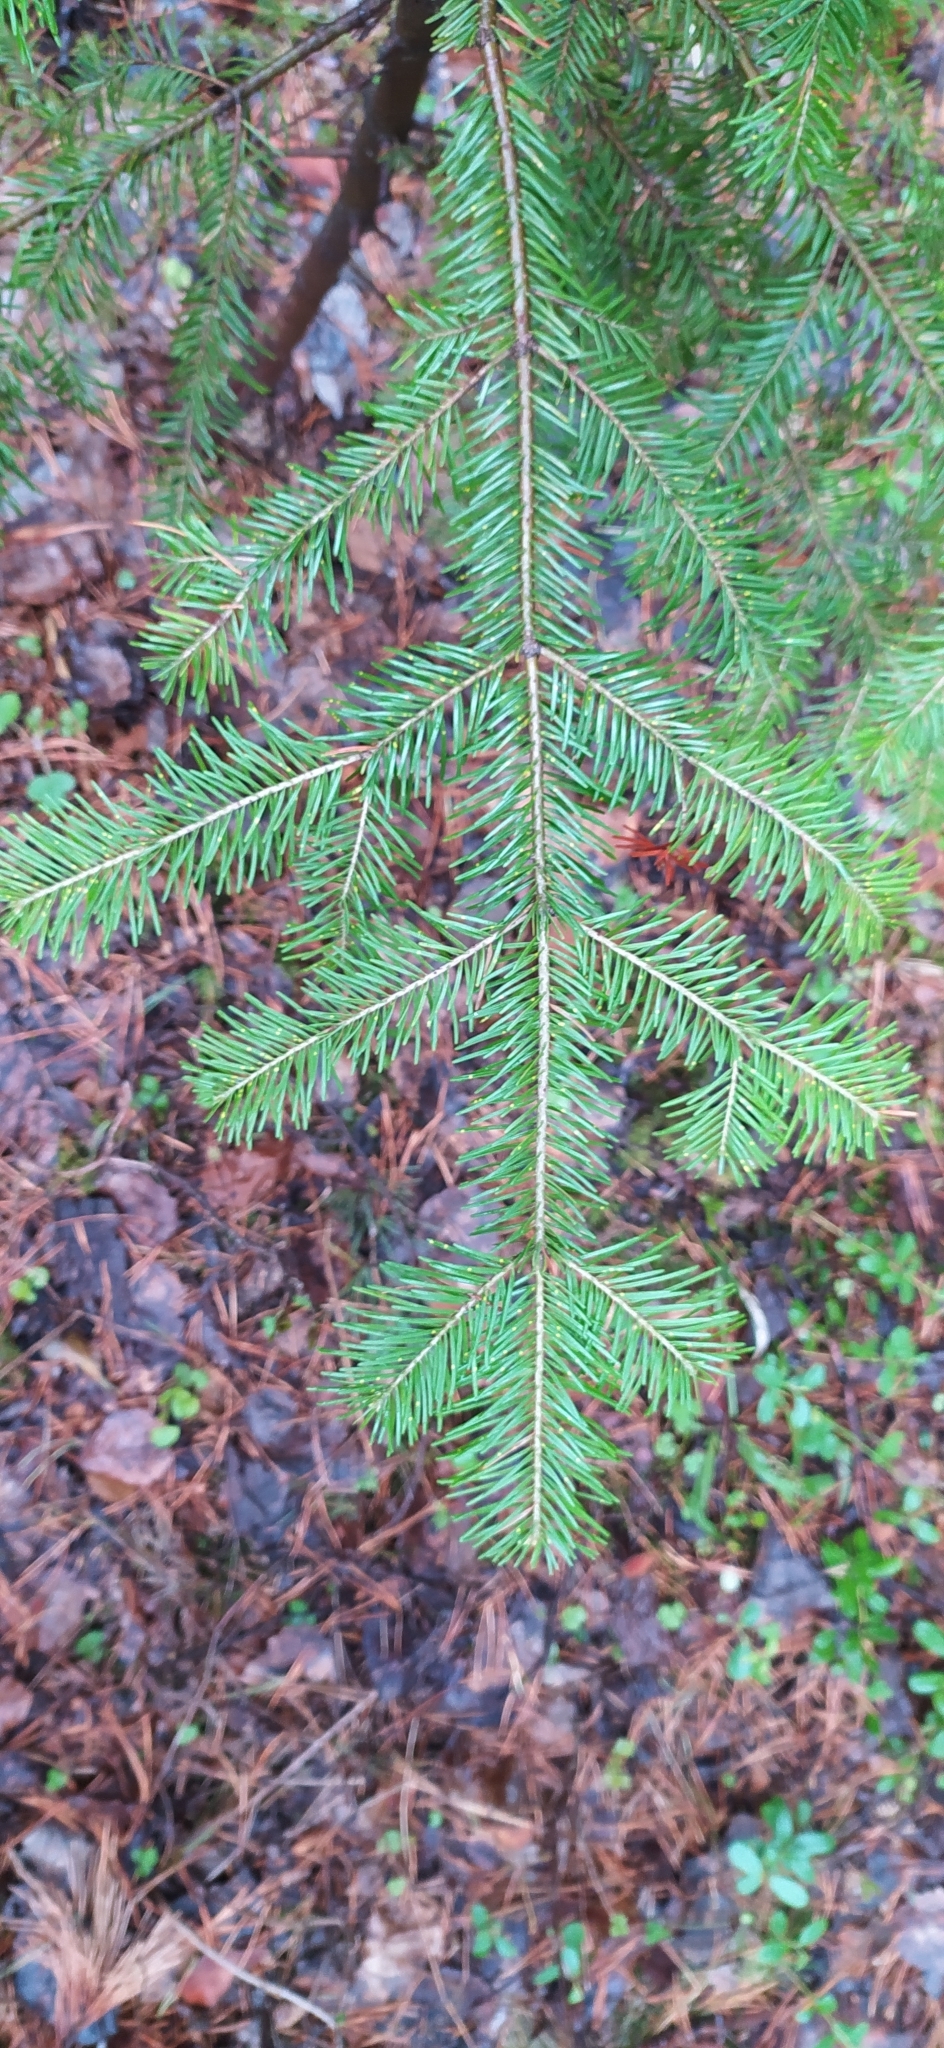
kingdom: Plantae
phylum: Tracheophyta
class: Pinopsida
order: Pinales
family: Pinaceae
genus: Abies
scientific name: Abies sibirica
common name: Siberian fir
